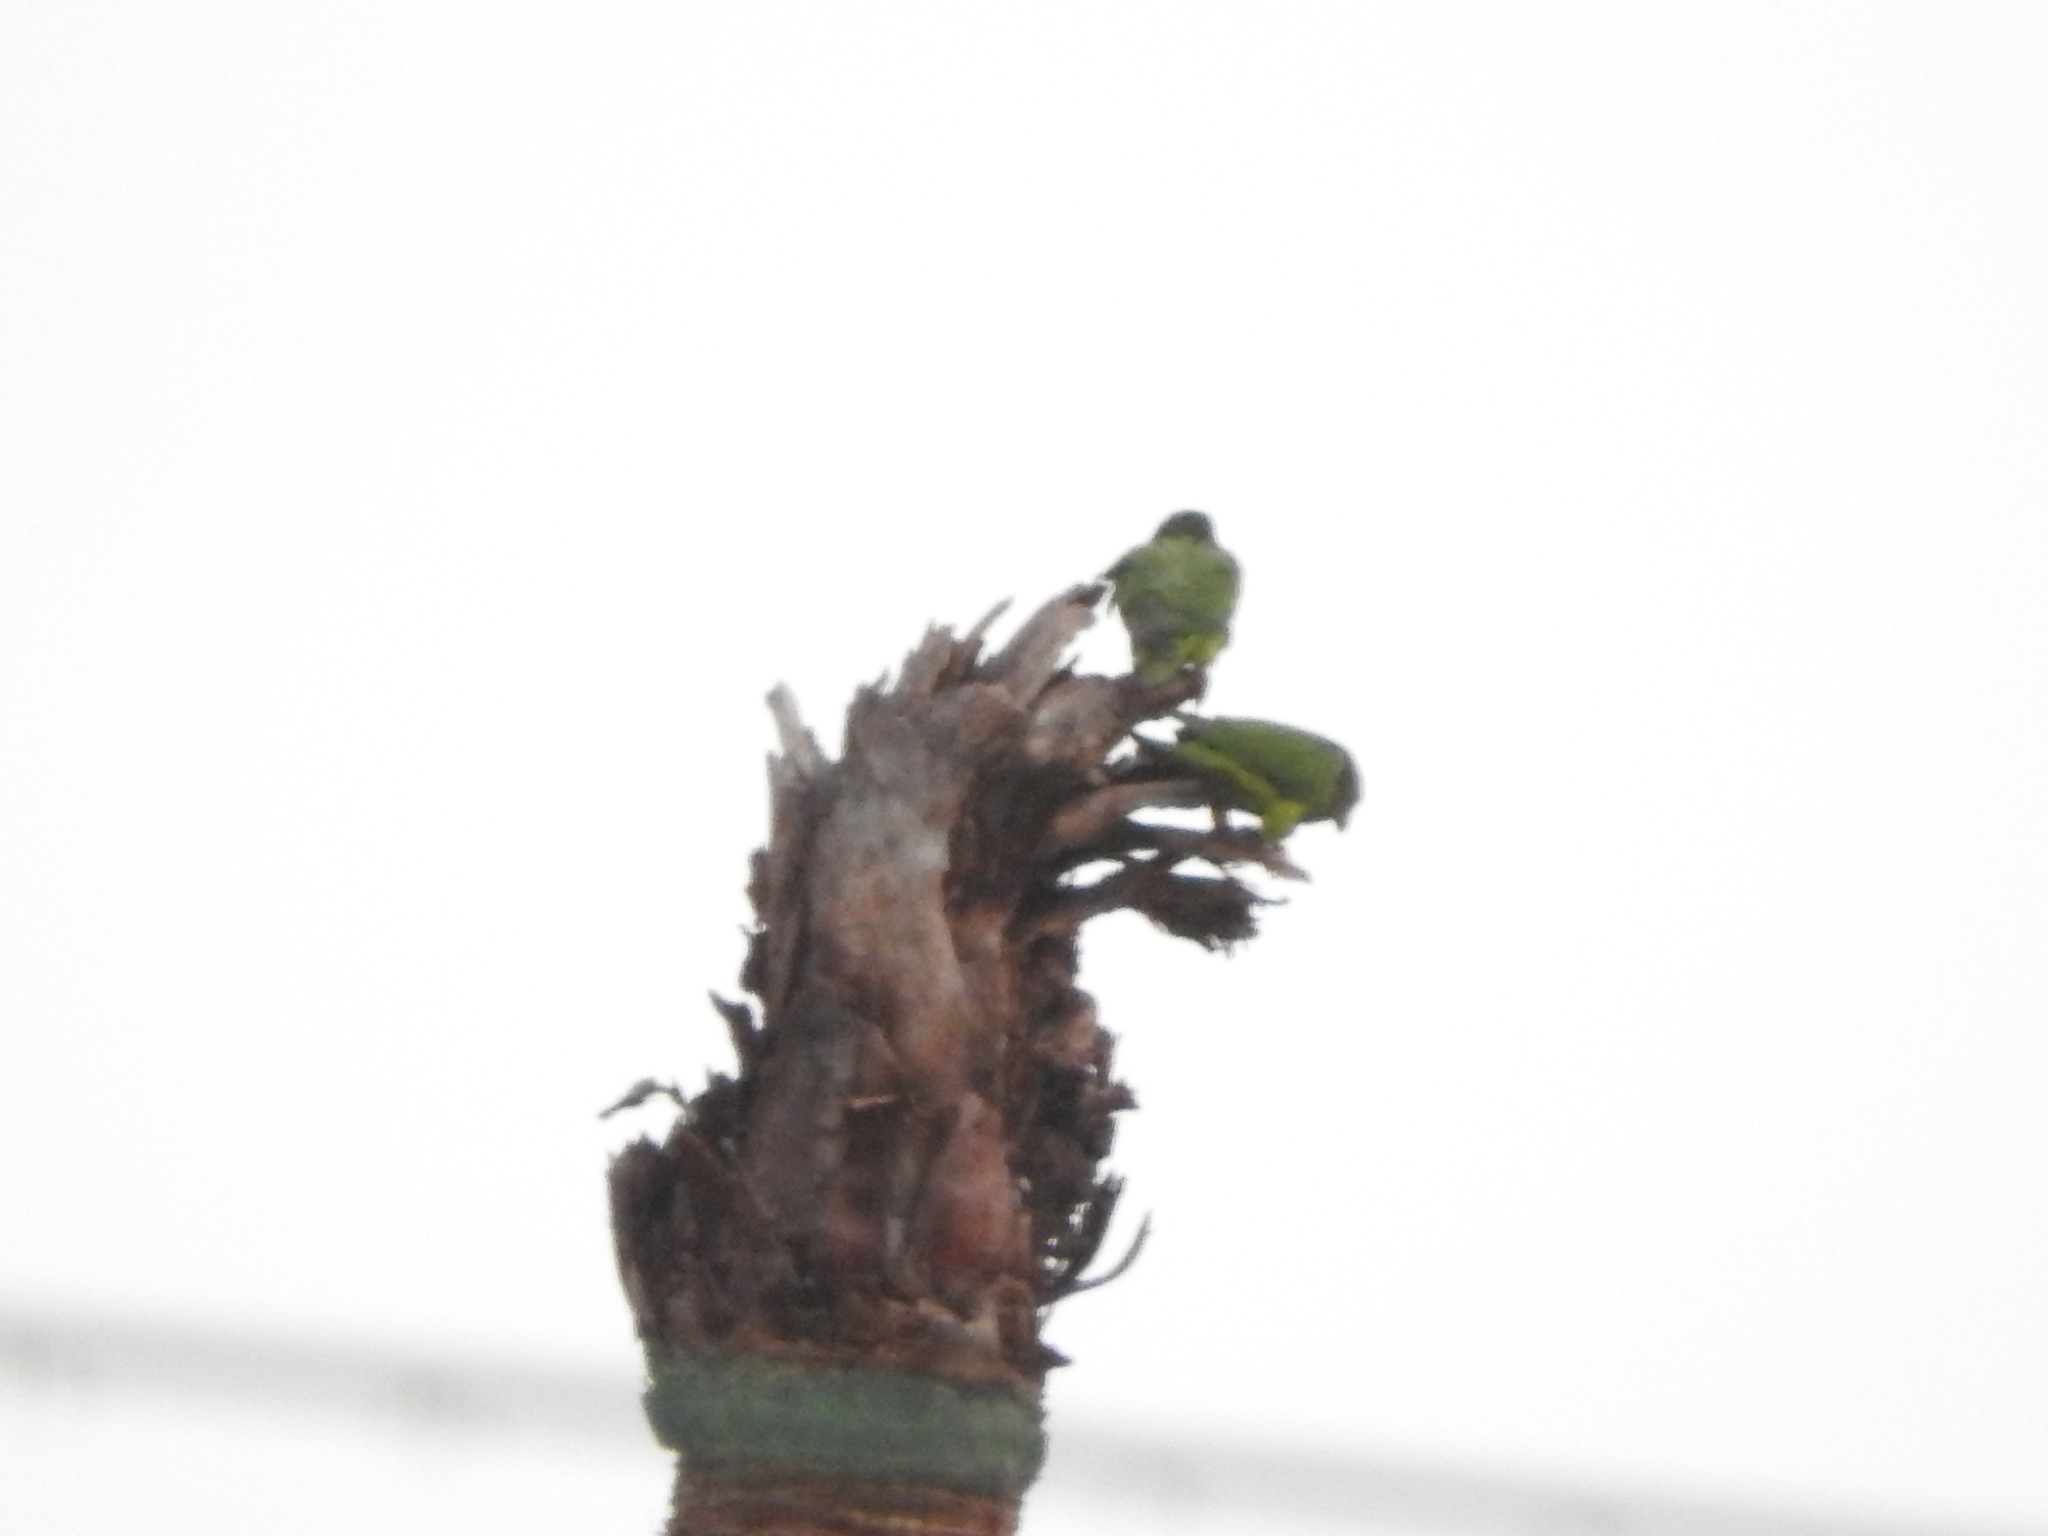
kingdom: Animalia
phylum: Chordata
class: Aves
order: Psittaciformes
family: Psittacidae
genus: Aratinga
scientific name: Aratinga holochlora
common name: Green parakeet
